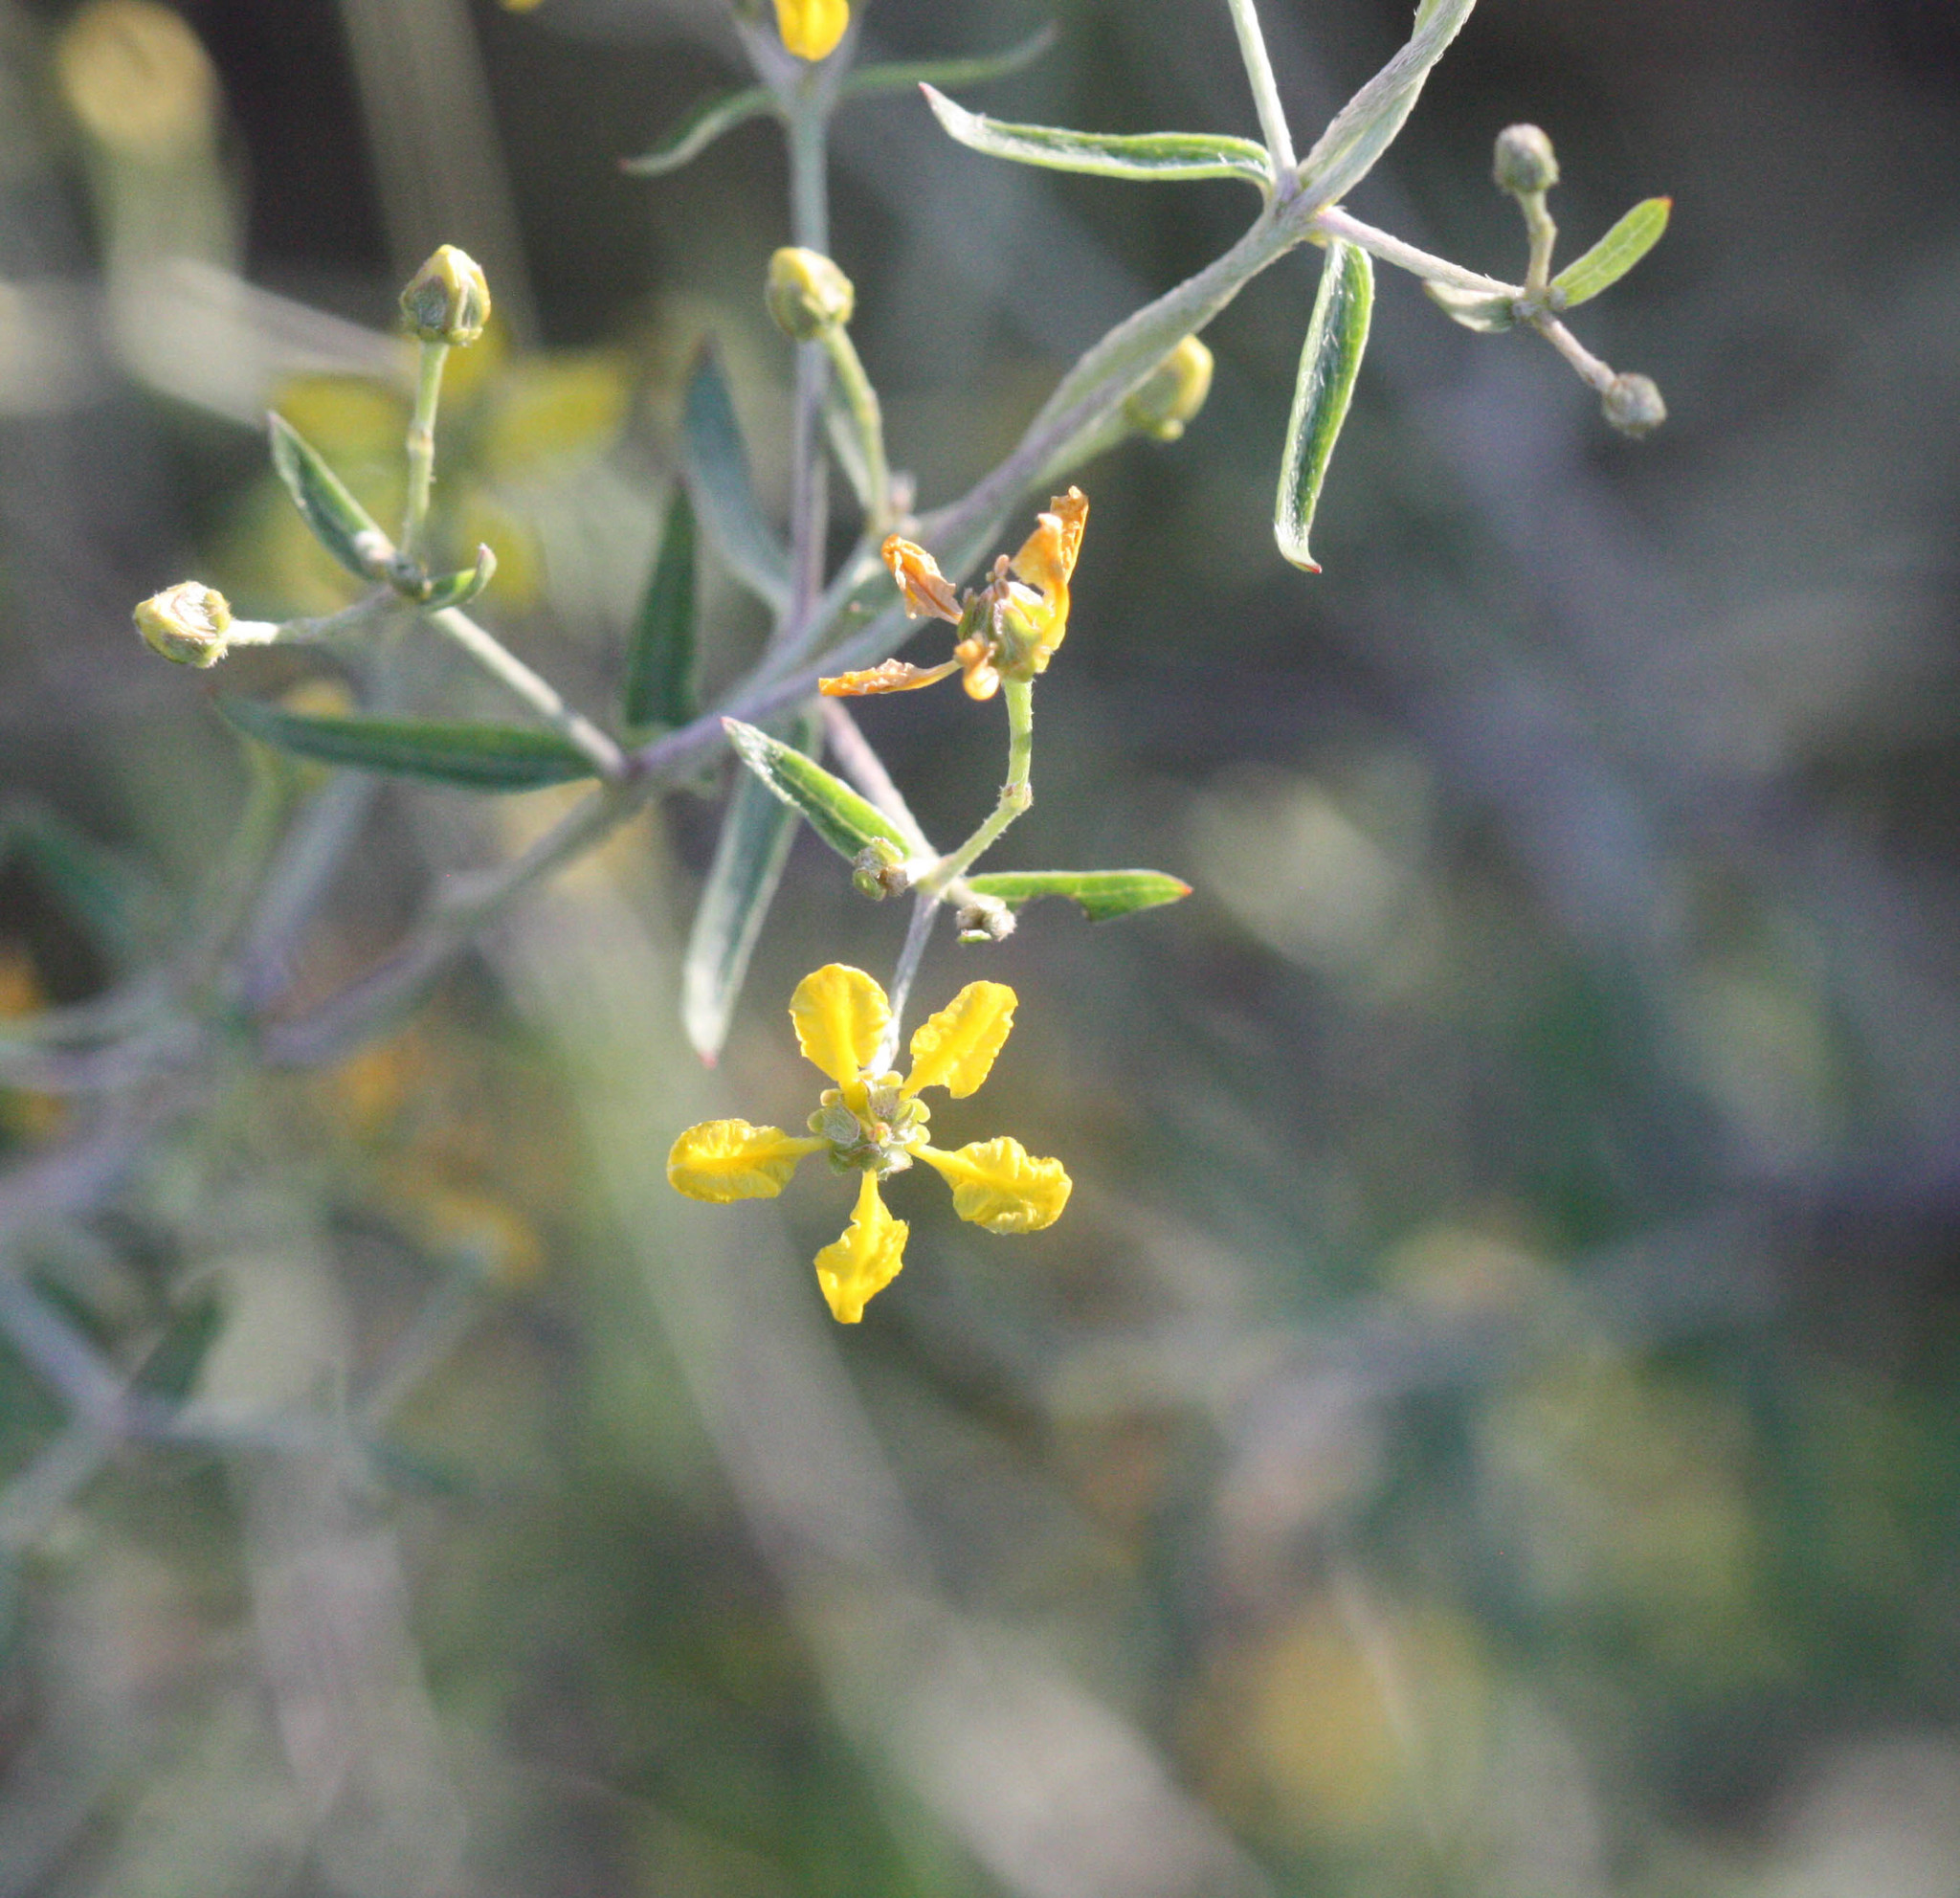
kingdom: Plantae
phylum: Tracheophyta
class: Magnoliopsida
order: Malpighiales
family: Malpighiaceae
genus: Cottsia
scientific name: Cottsia gracilis
